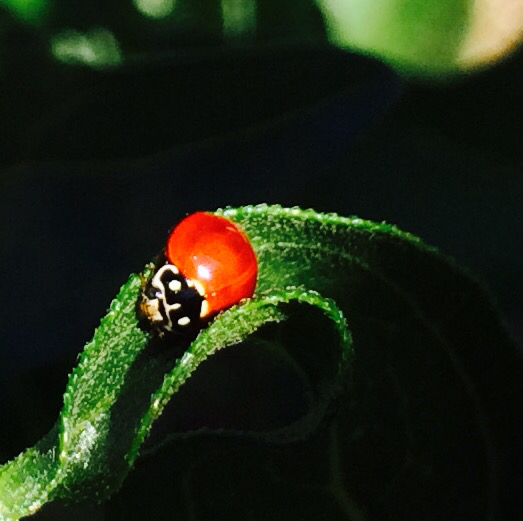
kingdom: Animalia
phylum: Arthropoda
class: Insecta
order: Coleoptera
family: Coccinellidae
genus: Cycloneda
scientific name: Cycloneda sanguinea
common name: Ladybird beetle
